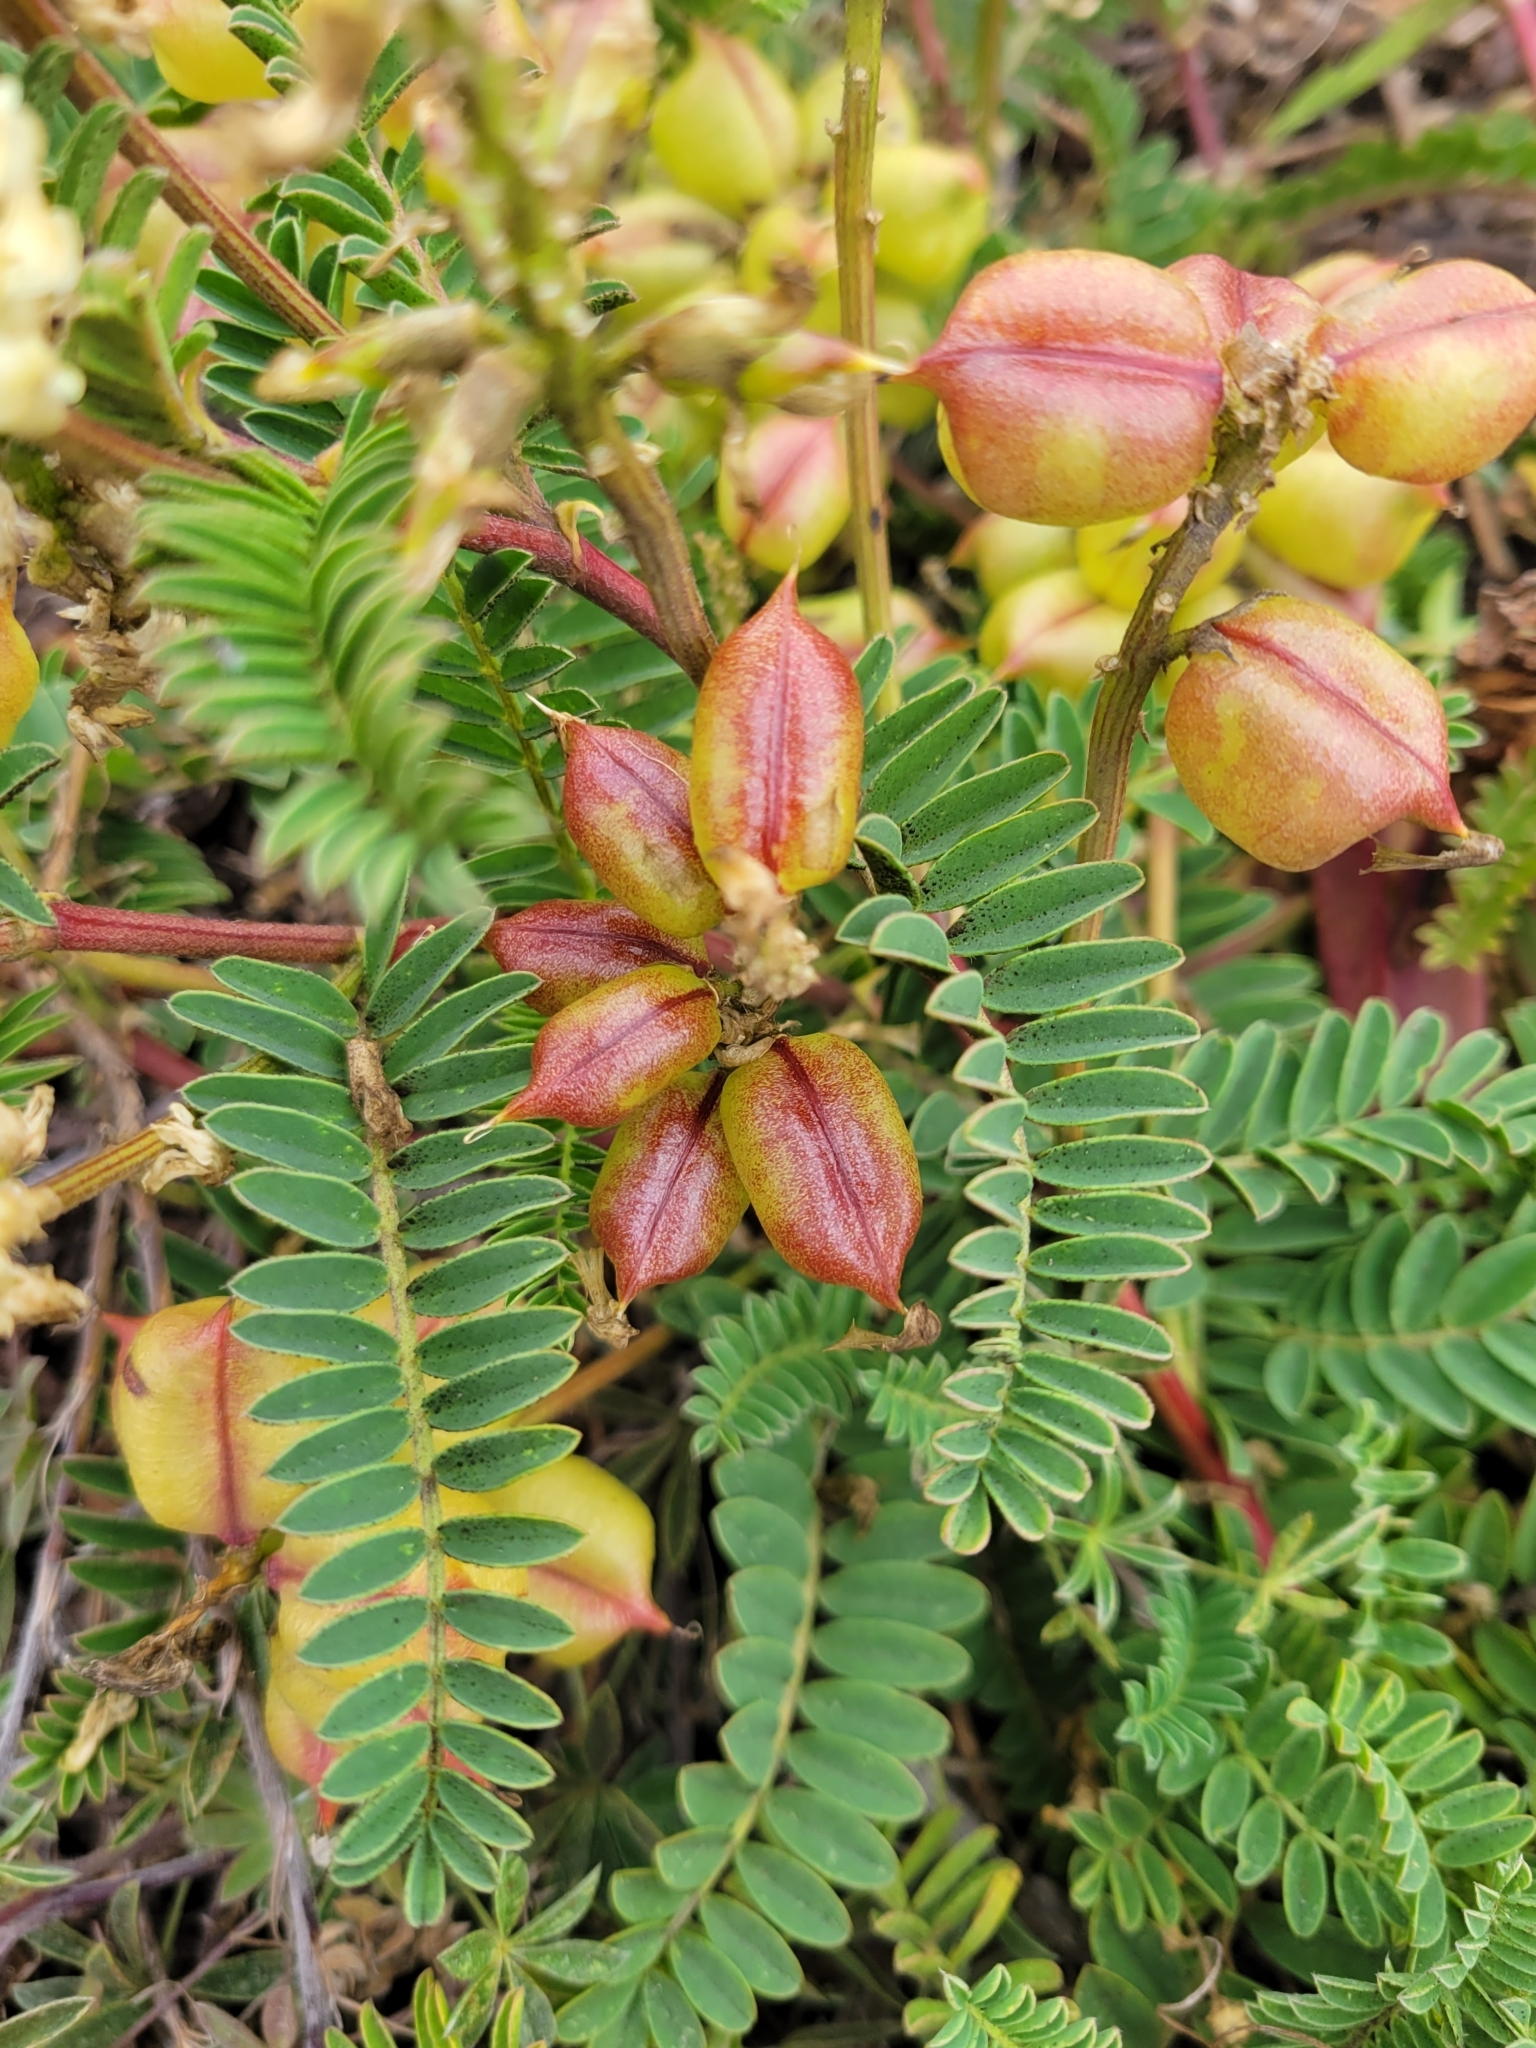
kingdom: Plantae
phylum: Tracheophyta
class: Magnoliopsida
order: Fabales
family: Fabaceae
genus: Astragalus
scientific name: Astragalus nuttallii
